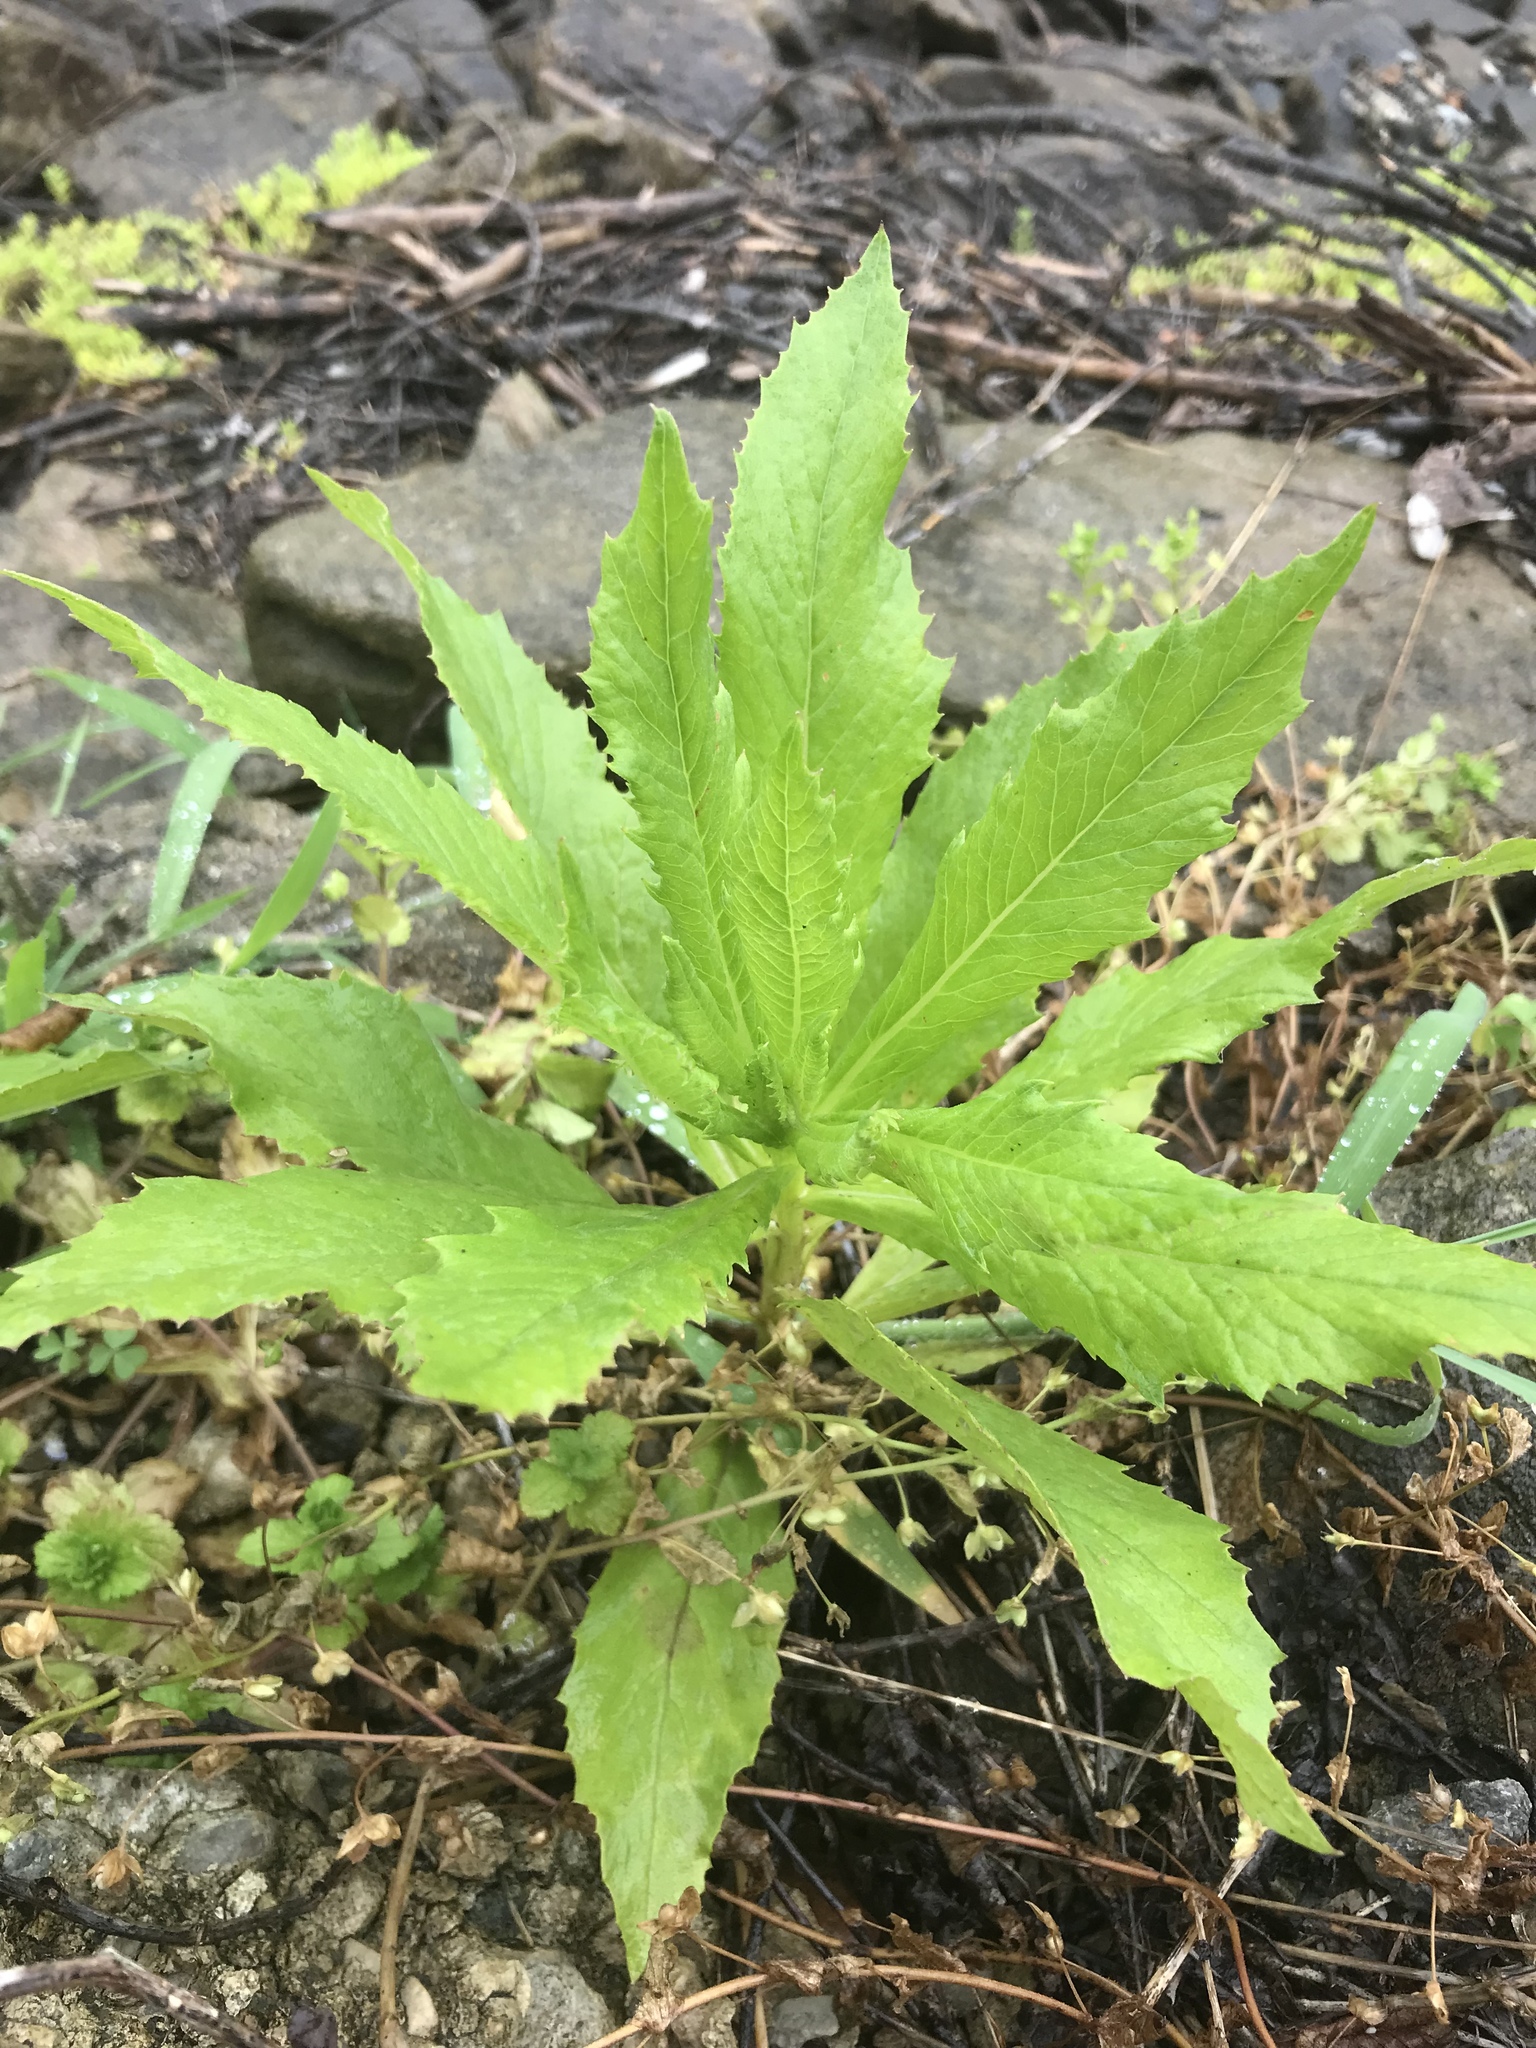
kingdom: Plantae
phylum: Tracheophyta
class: Magnoliopsida
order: Asterales
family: Asteraceae
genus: Erechtites
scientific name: Erechtites hieraciifolius
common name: American burnweed
